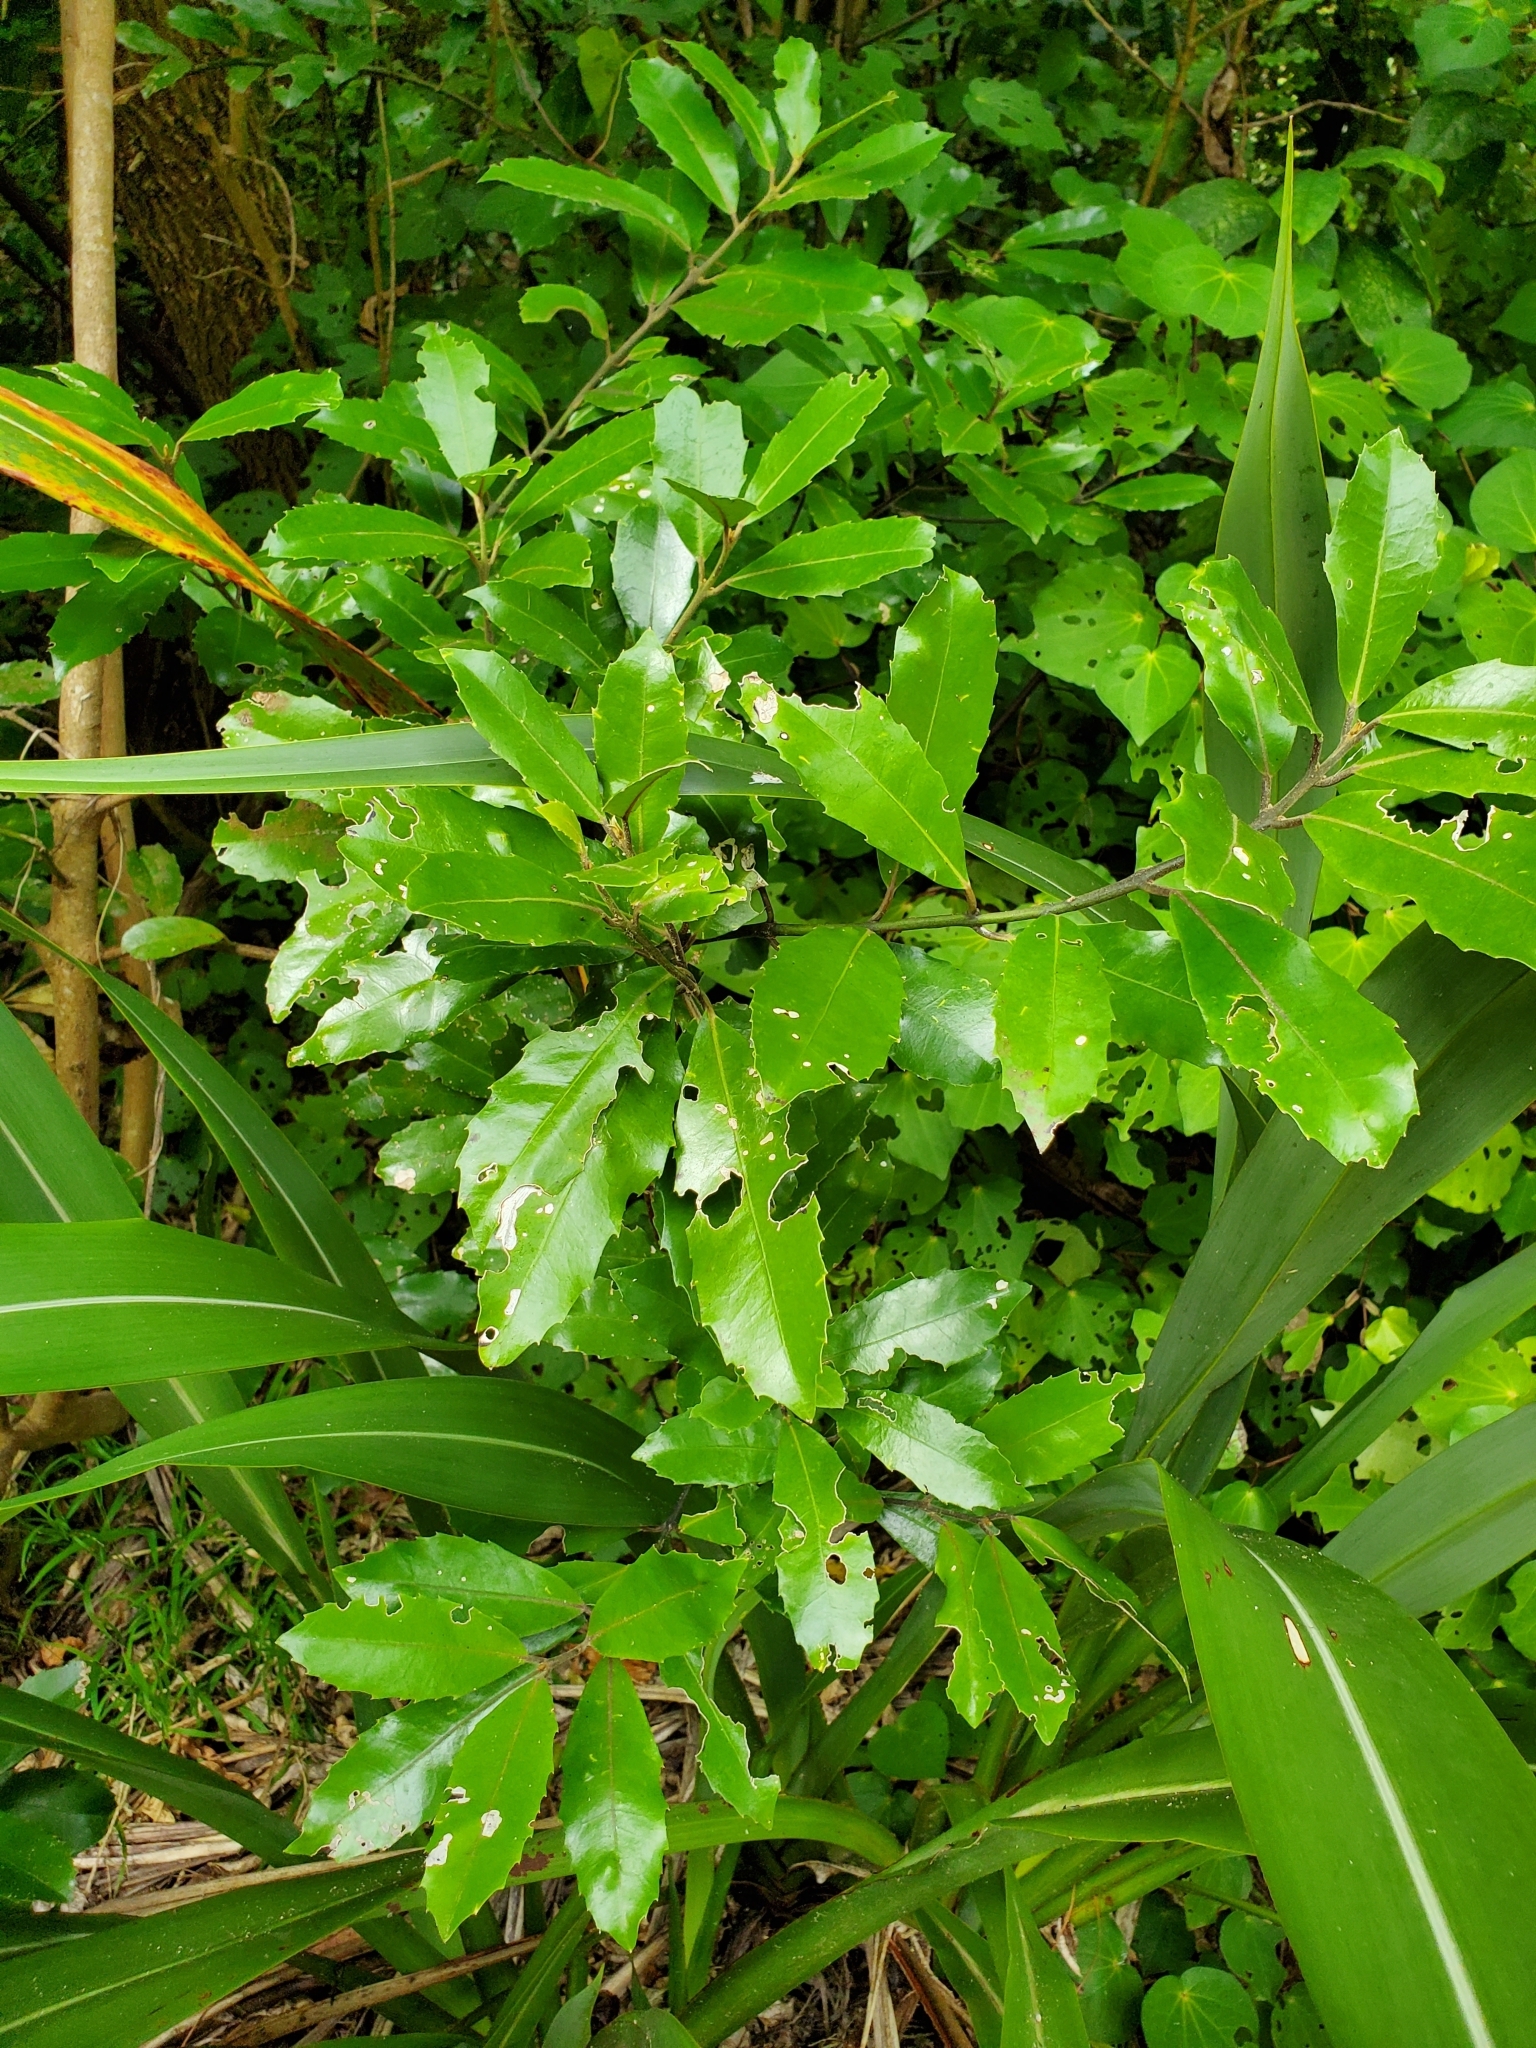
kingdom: Plantae
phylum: Tracheophyta
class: Magnoliopsida
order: Laurales
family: Monimiaceae
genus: Hedycarya
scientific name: Hedycarya arborea
